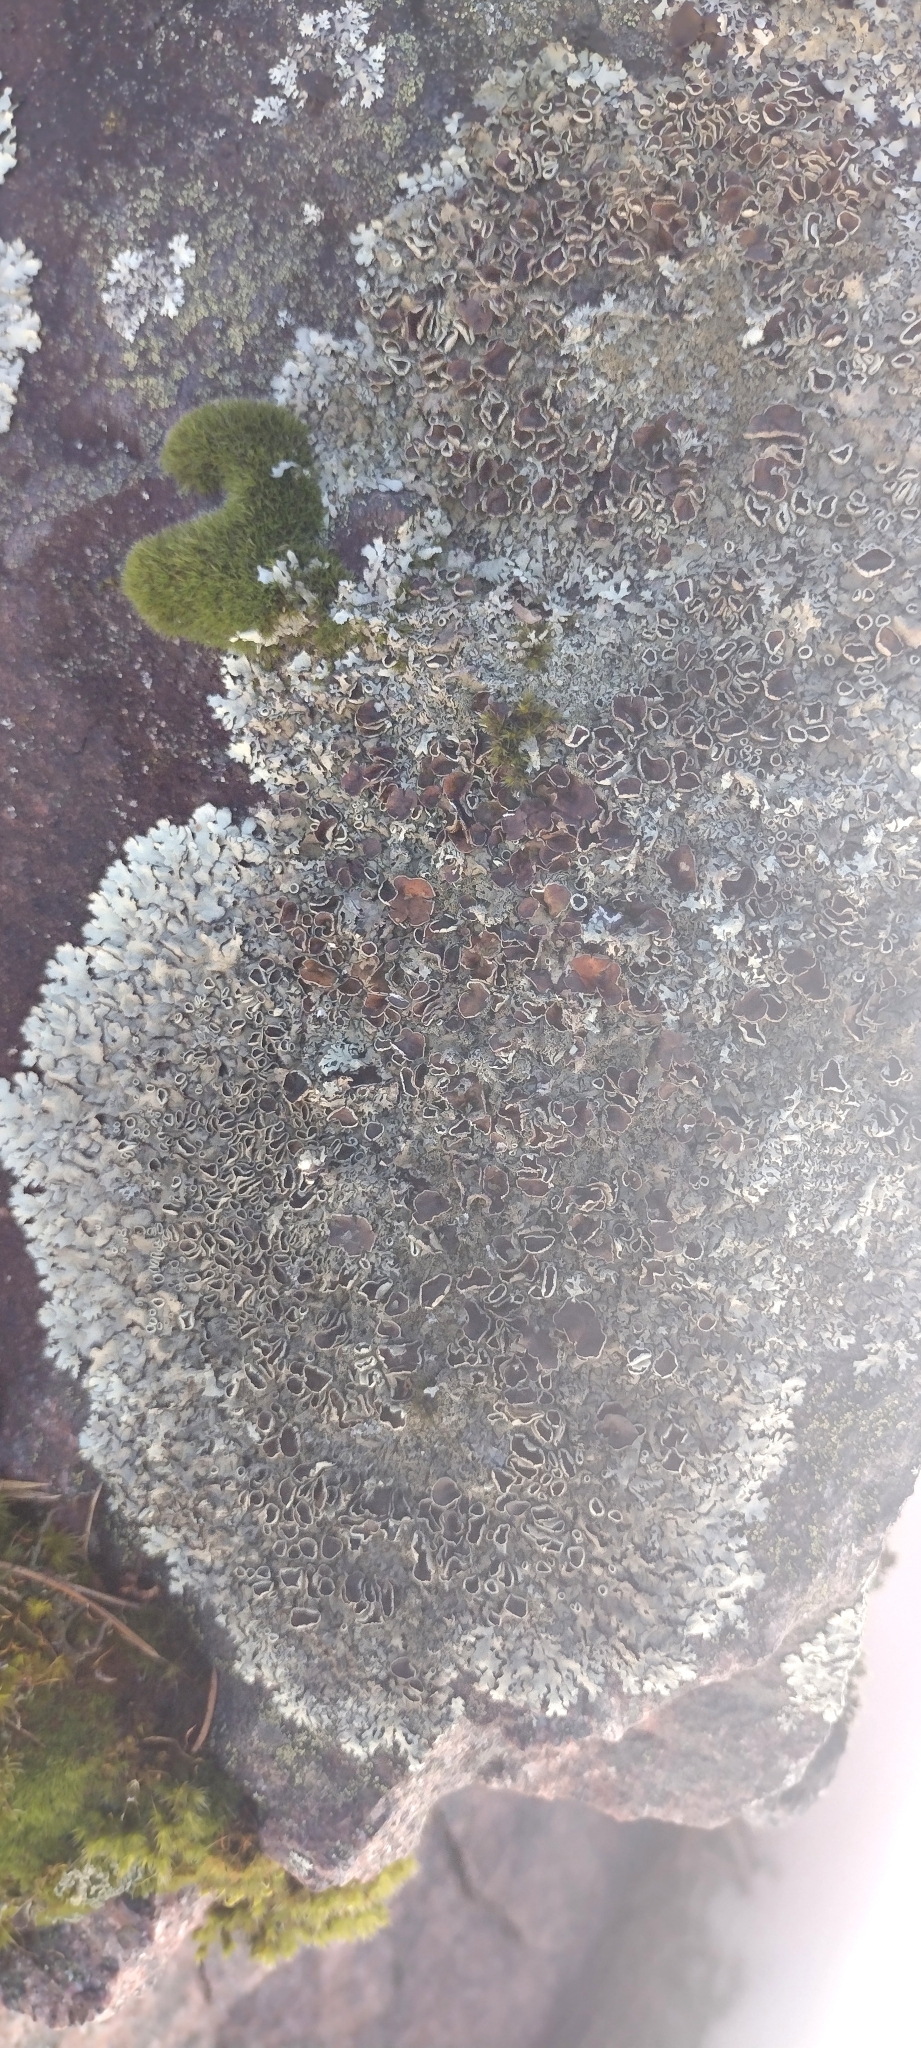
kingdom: Fungi
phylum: Ascomycota
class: Lecanoromycetes
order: Lecanorales
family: Parmeliaceae
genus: Xanthoparmelia
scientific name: Xanthoparmelia conspersa
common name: Peppered rock shield
